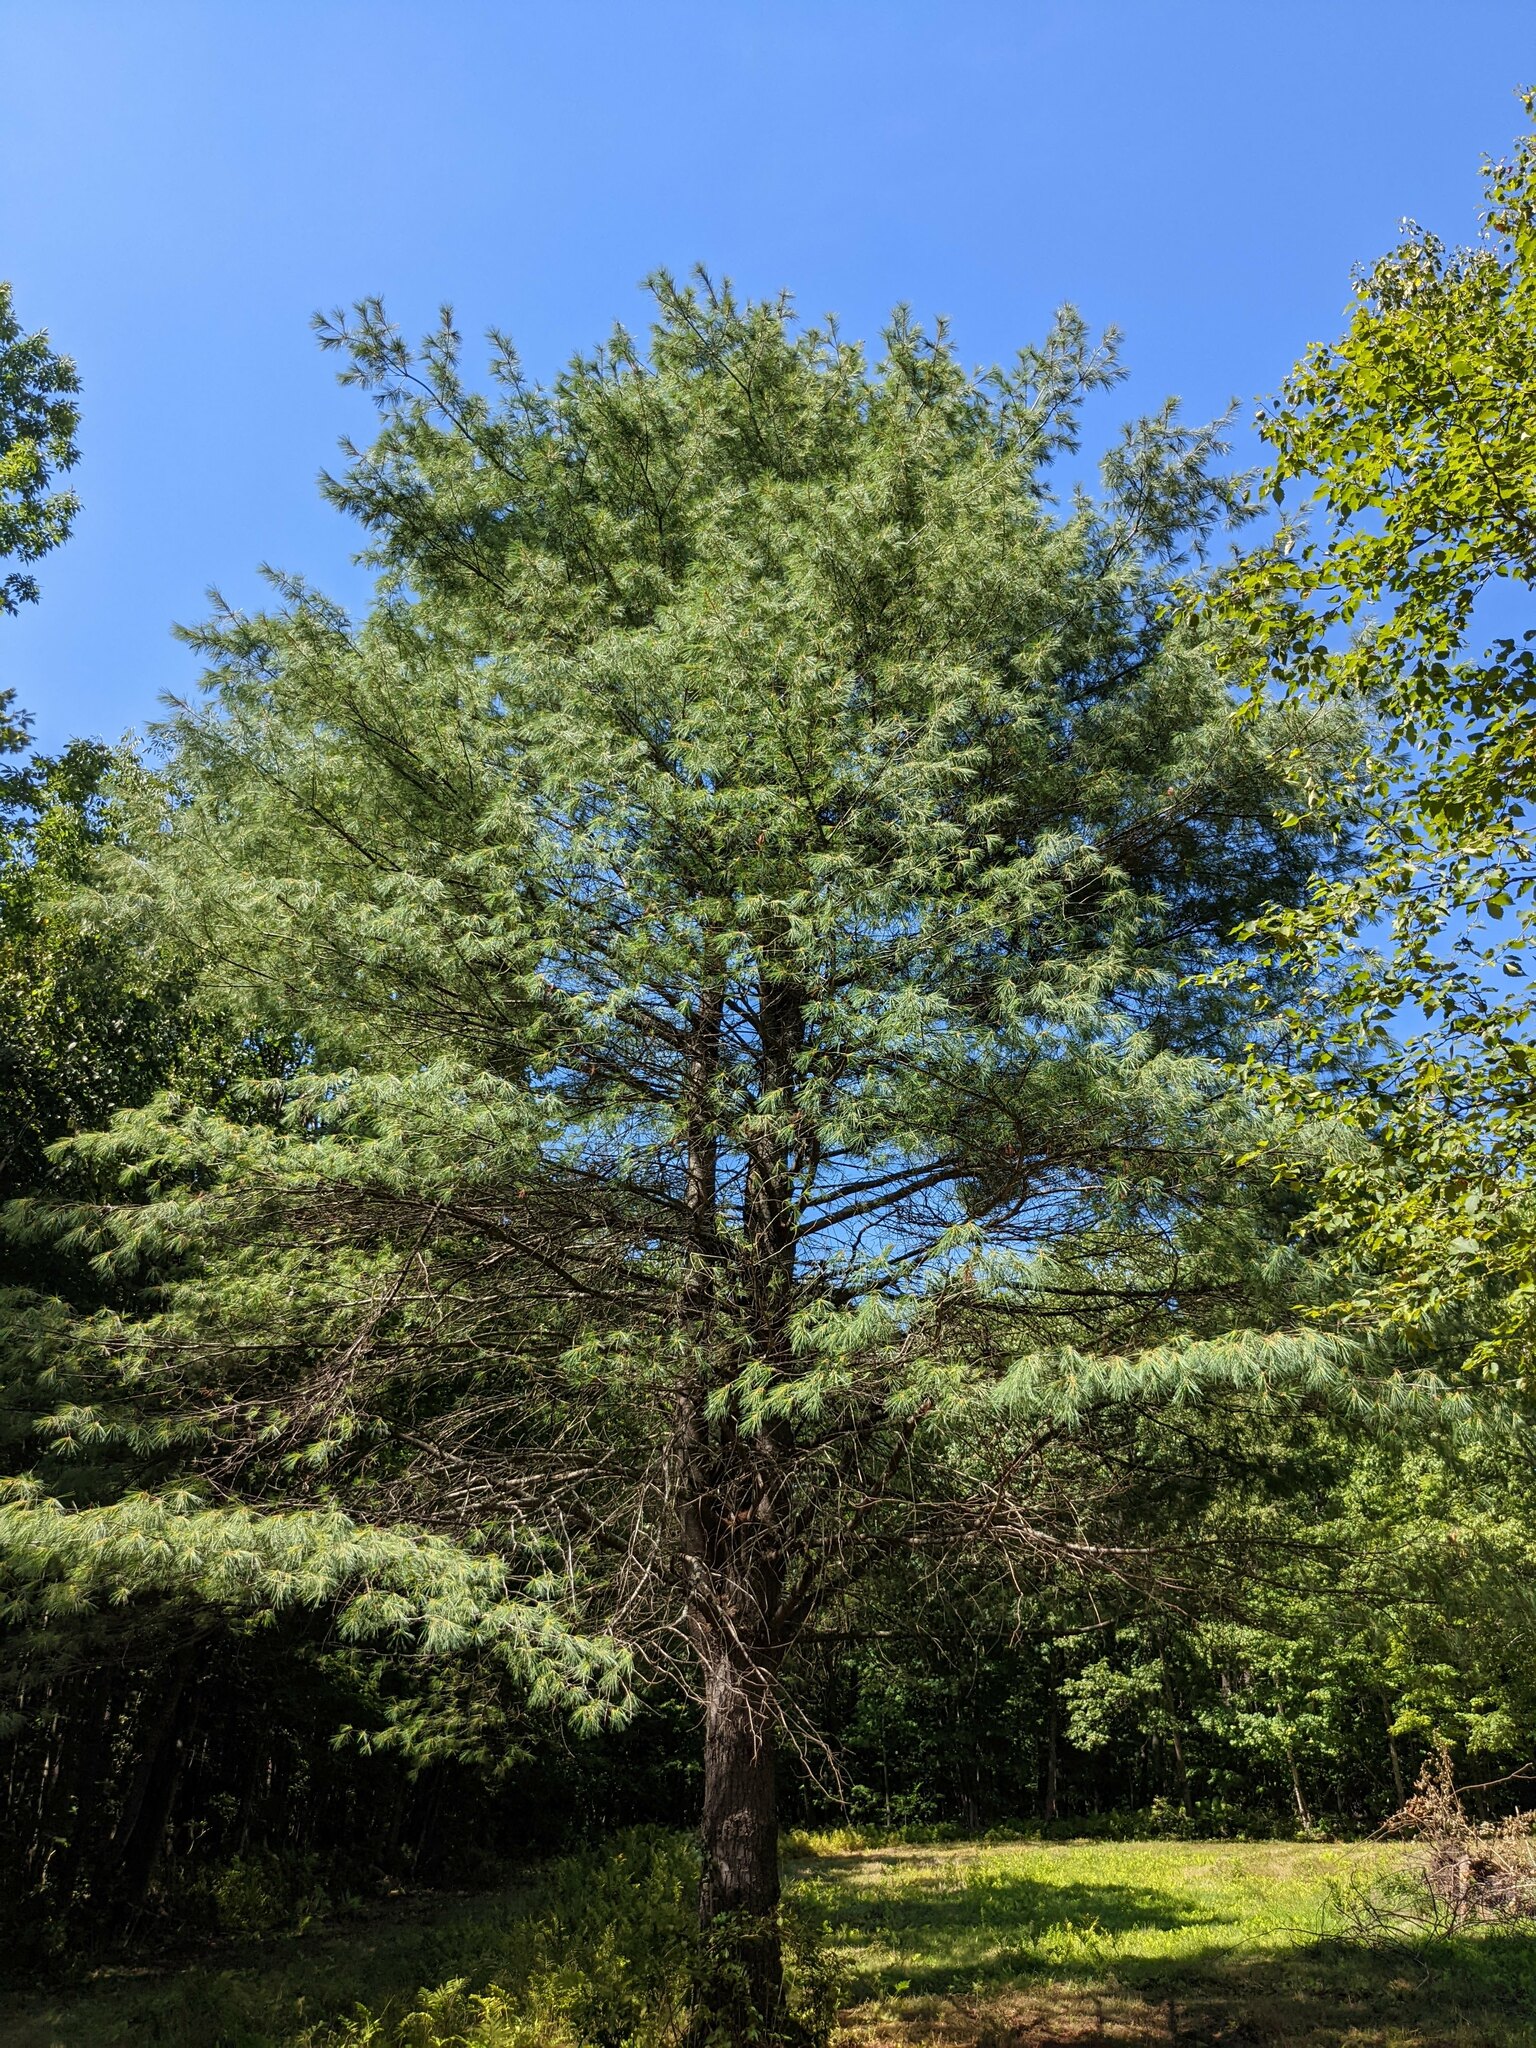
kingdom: Plantae
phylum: Tracheophyta
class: Pinopsida
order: Pinales
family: Pinaceae
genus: Pinus
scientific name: Pinus strobus
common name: Weymouth pine
